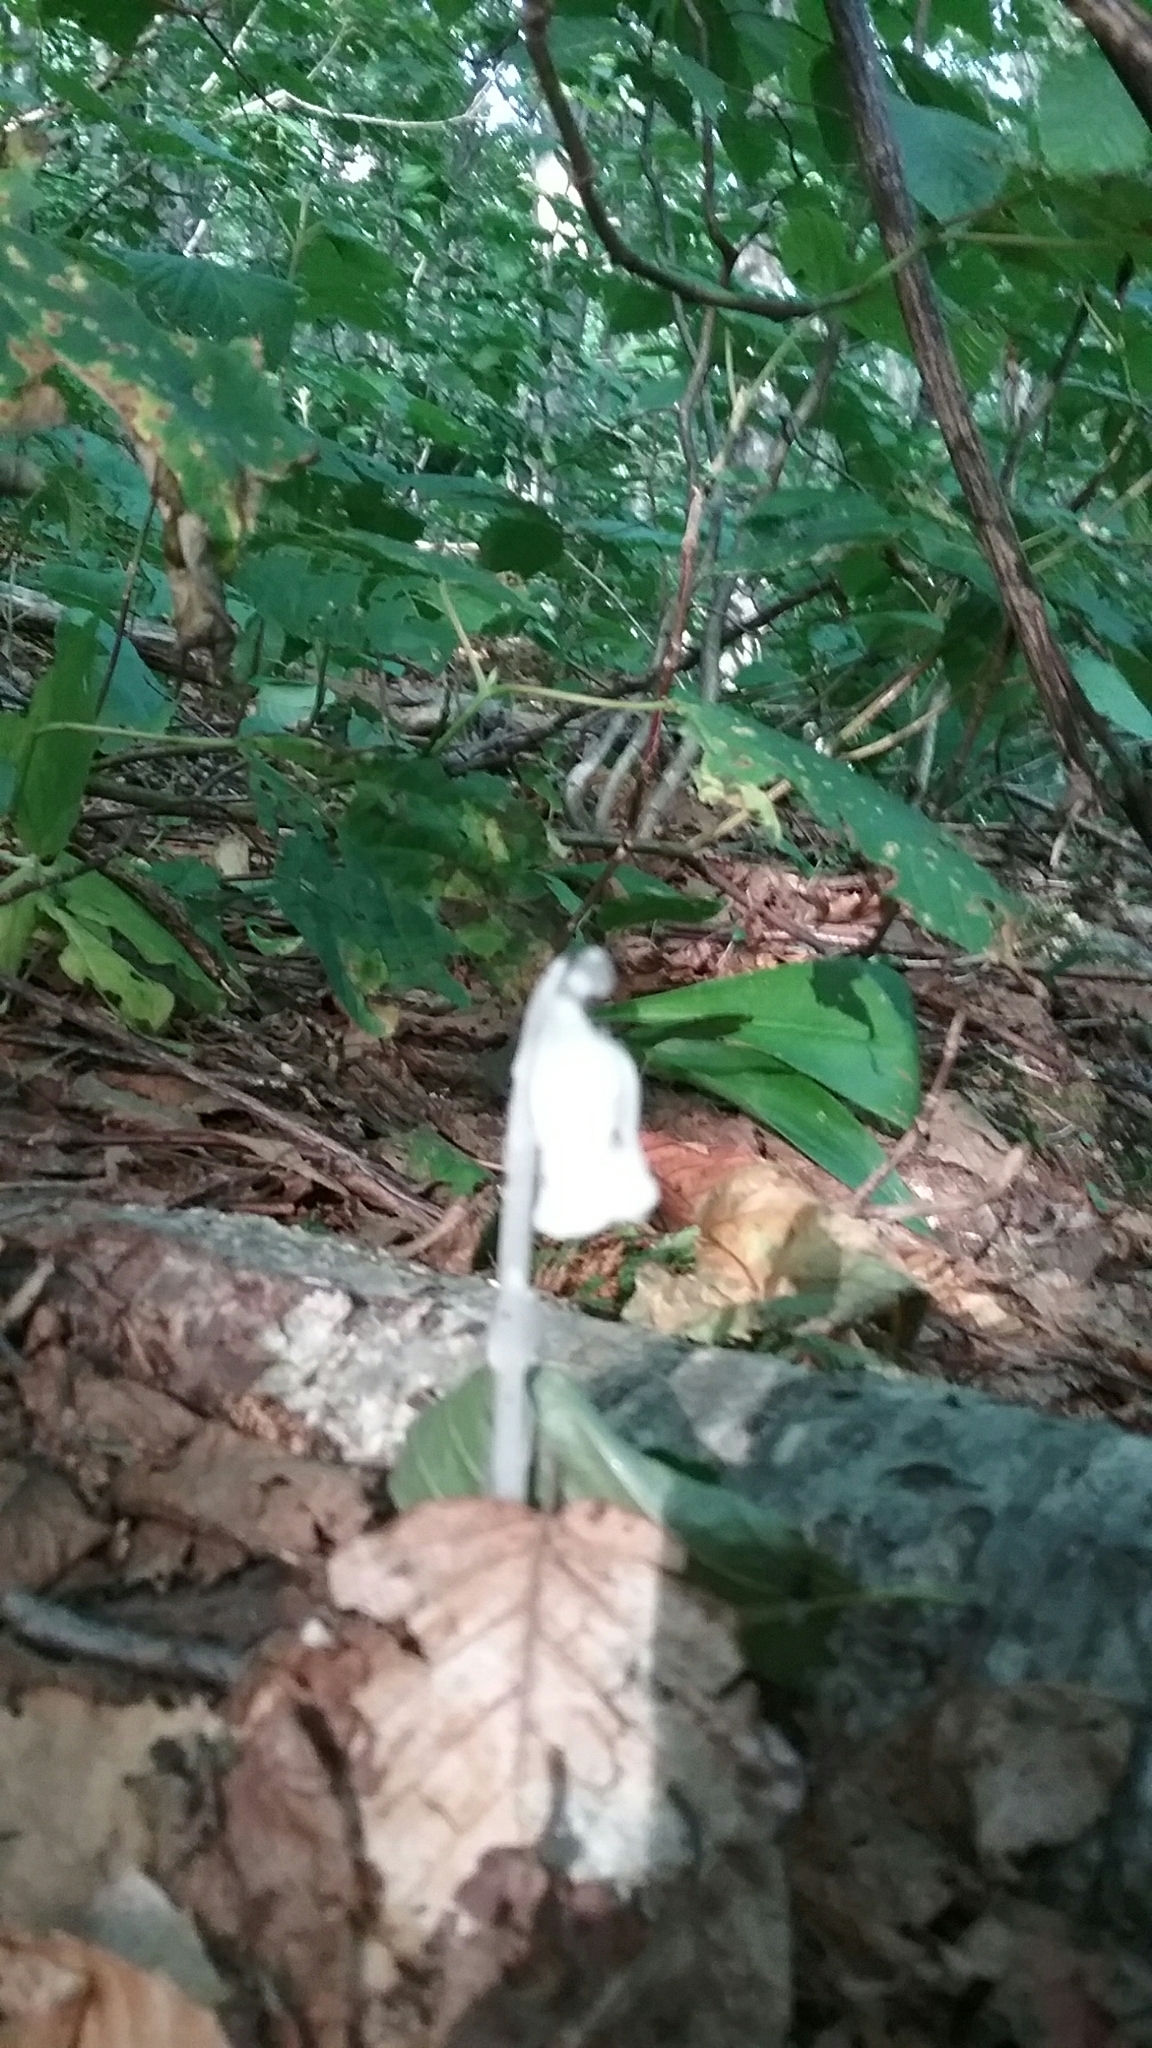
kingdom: Plantae
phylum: Tracheophyta
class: Magnoliopsida
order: Ericales
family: Ericaceae
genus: Monotropa
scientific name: Monotropa uniflora
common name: Convulsion root
